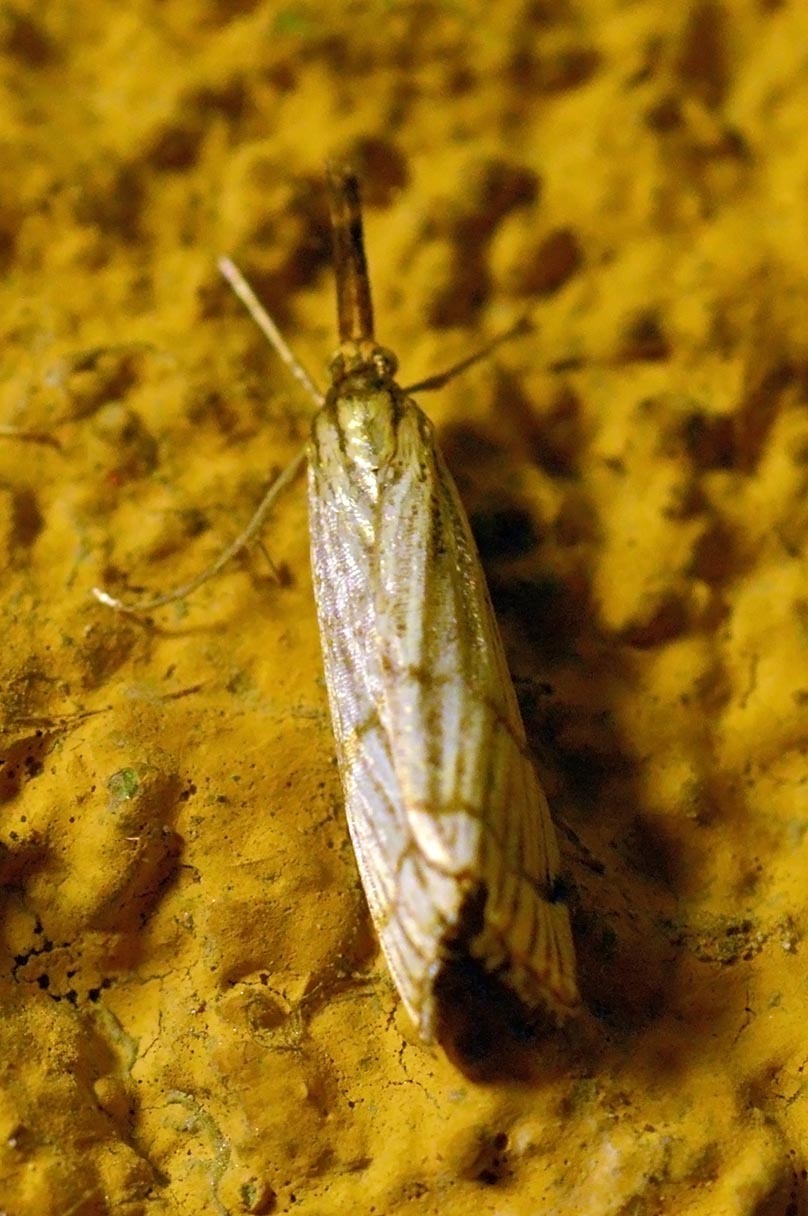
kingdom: Animalia
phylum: Arthropoda
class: Insecta
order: Lepidoptera
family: Crambidae
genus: Chrysocrambus
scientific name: Chrysocrambus linetella
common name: Orange-bar grass-veneer
